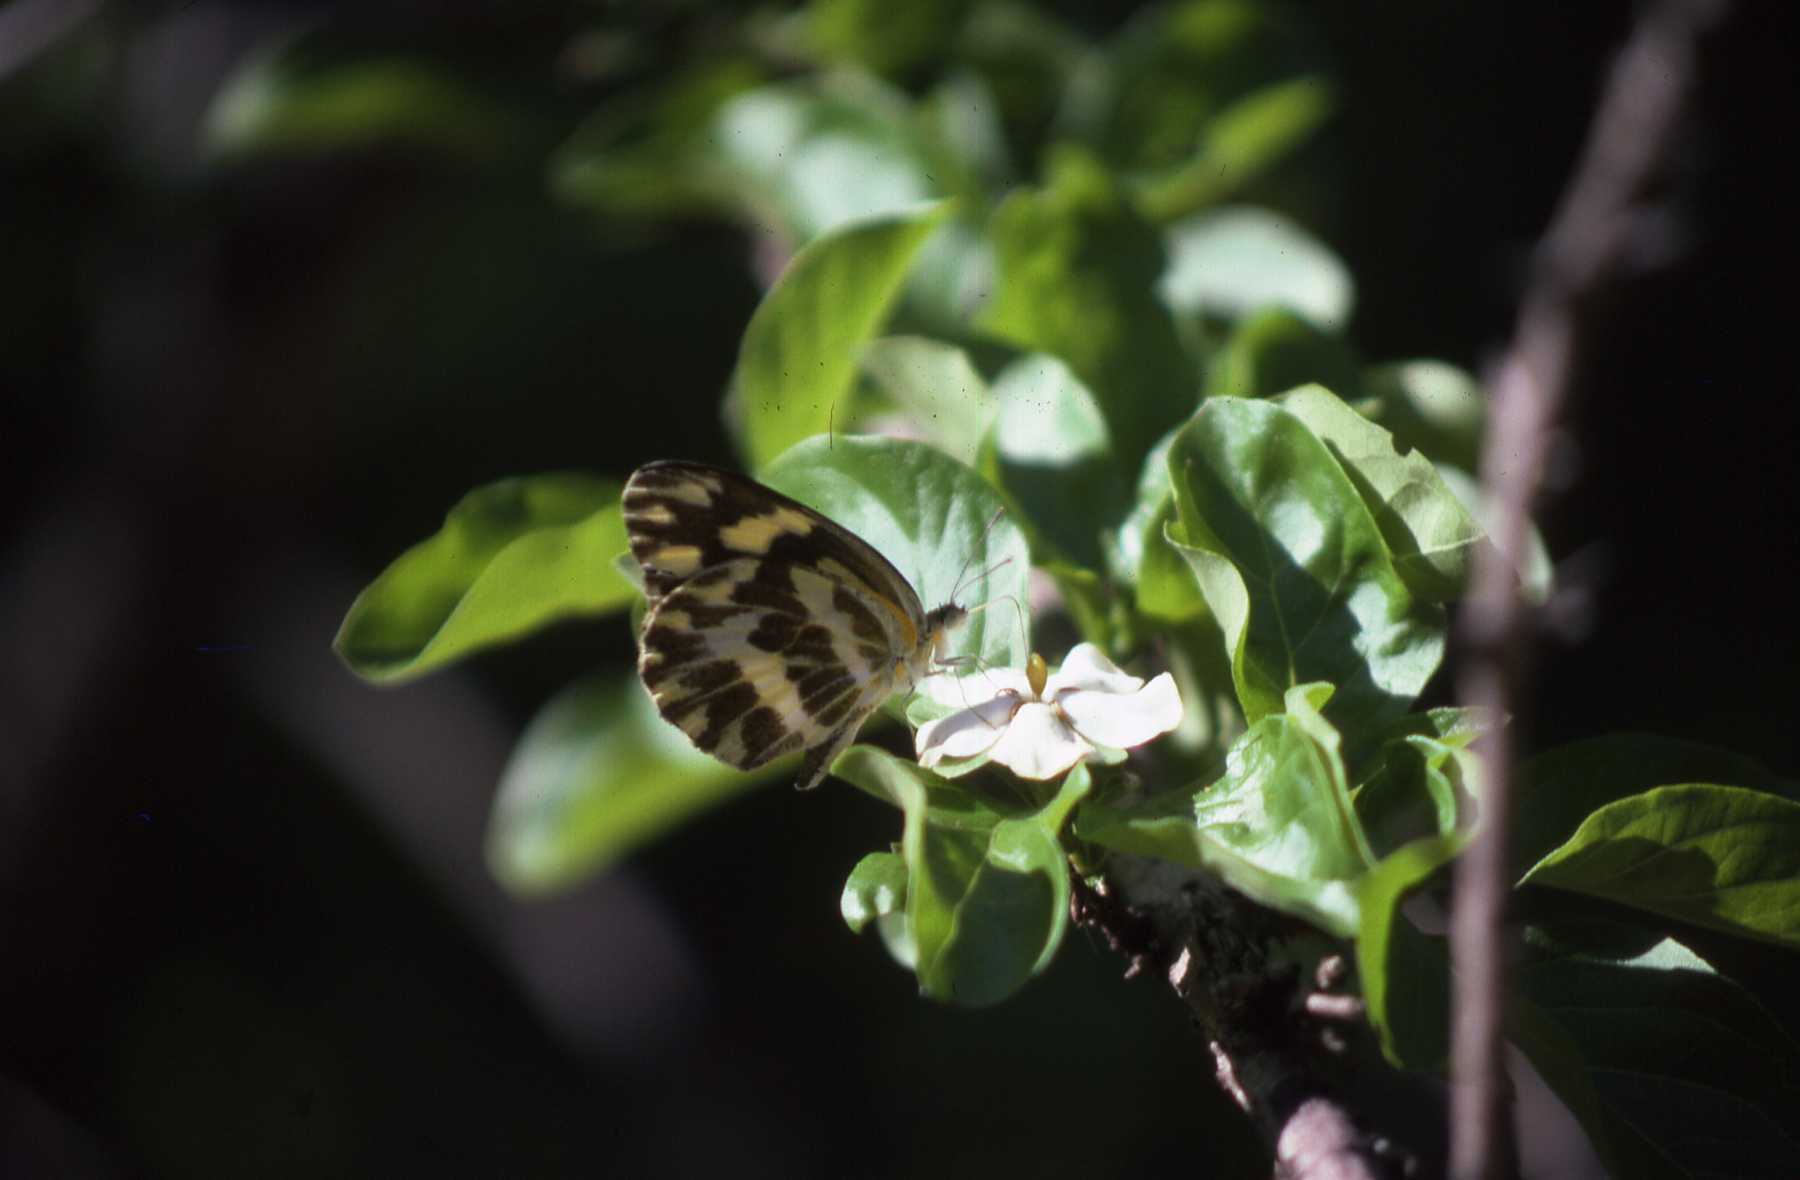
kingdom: Animalia
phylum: Arthropoda
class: Insecta
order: Lepidoptera
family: Pieridae
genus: Pinacopteryx
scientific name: Pinacopteryx eriphia
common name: Zebra white
